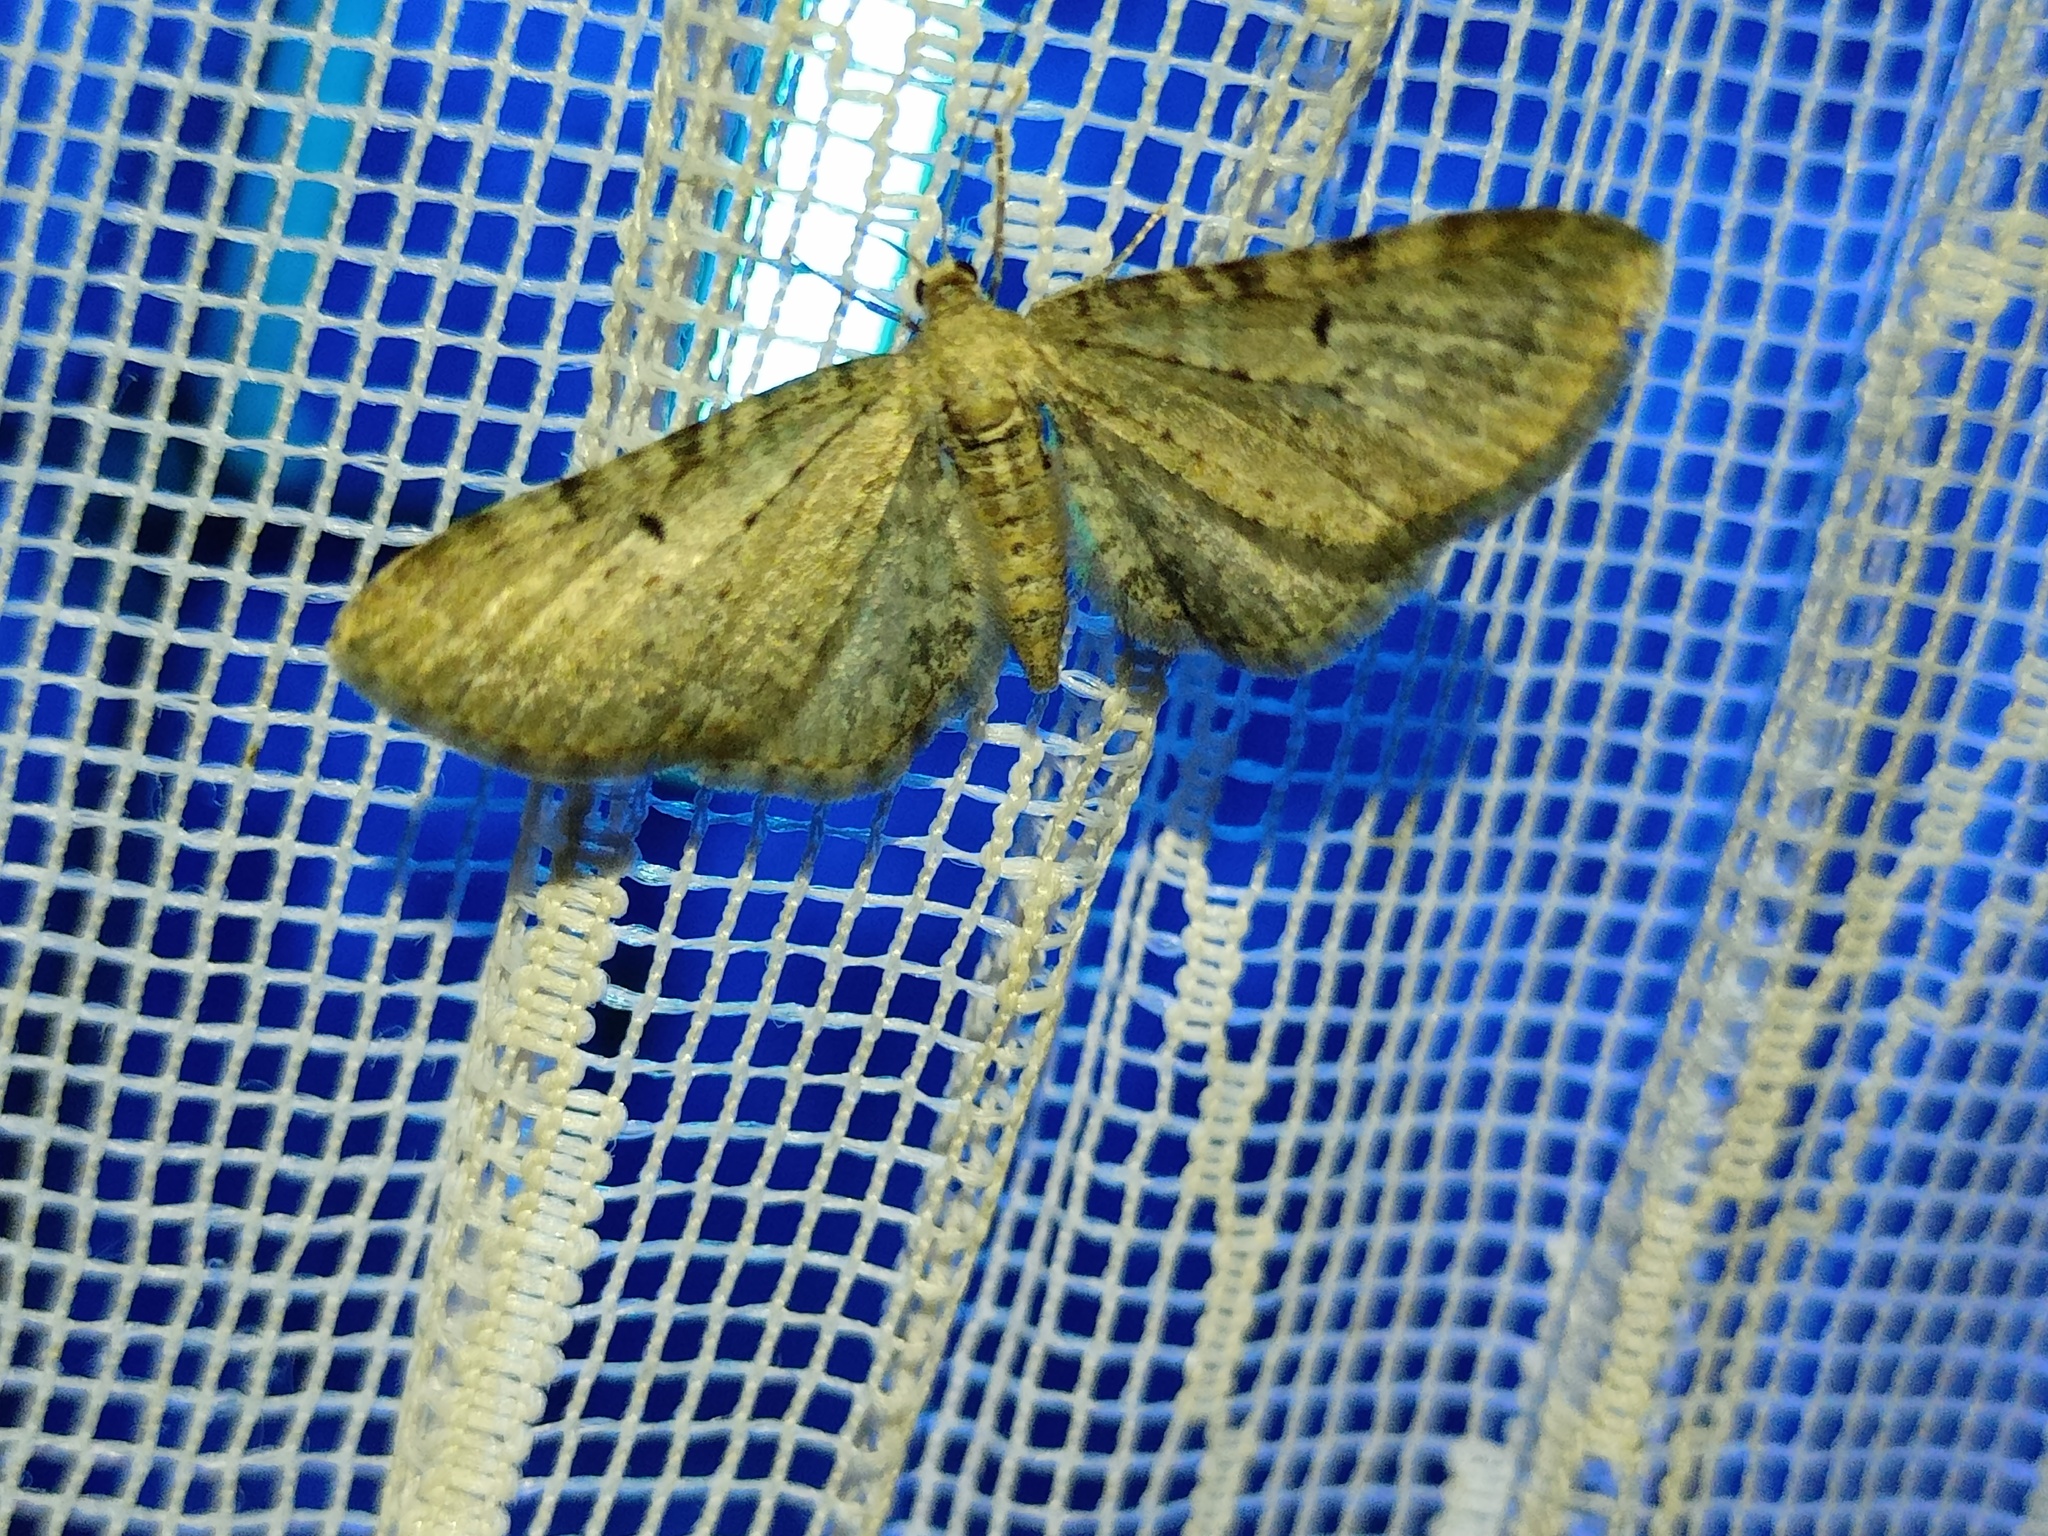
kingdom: Animalia
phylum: Arthropoda
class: Insecta
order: Lepidoptera
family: Geometridae
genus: Eupithecia
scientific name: Eupithecia veratraria
